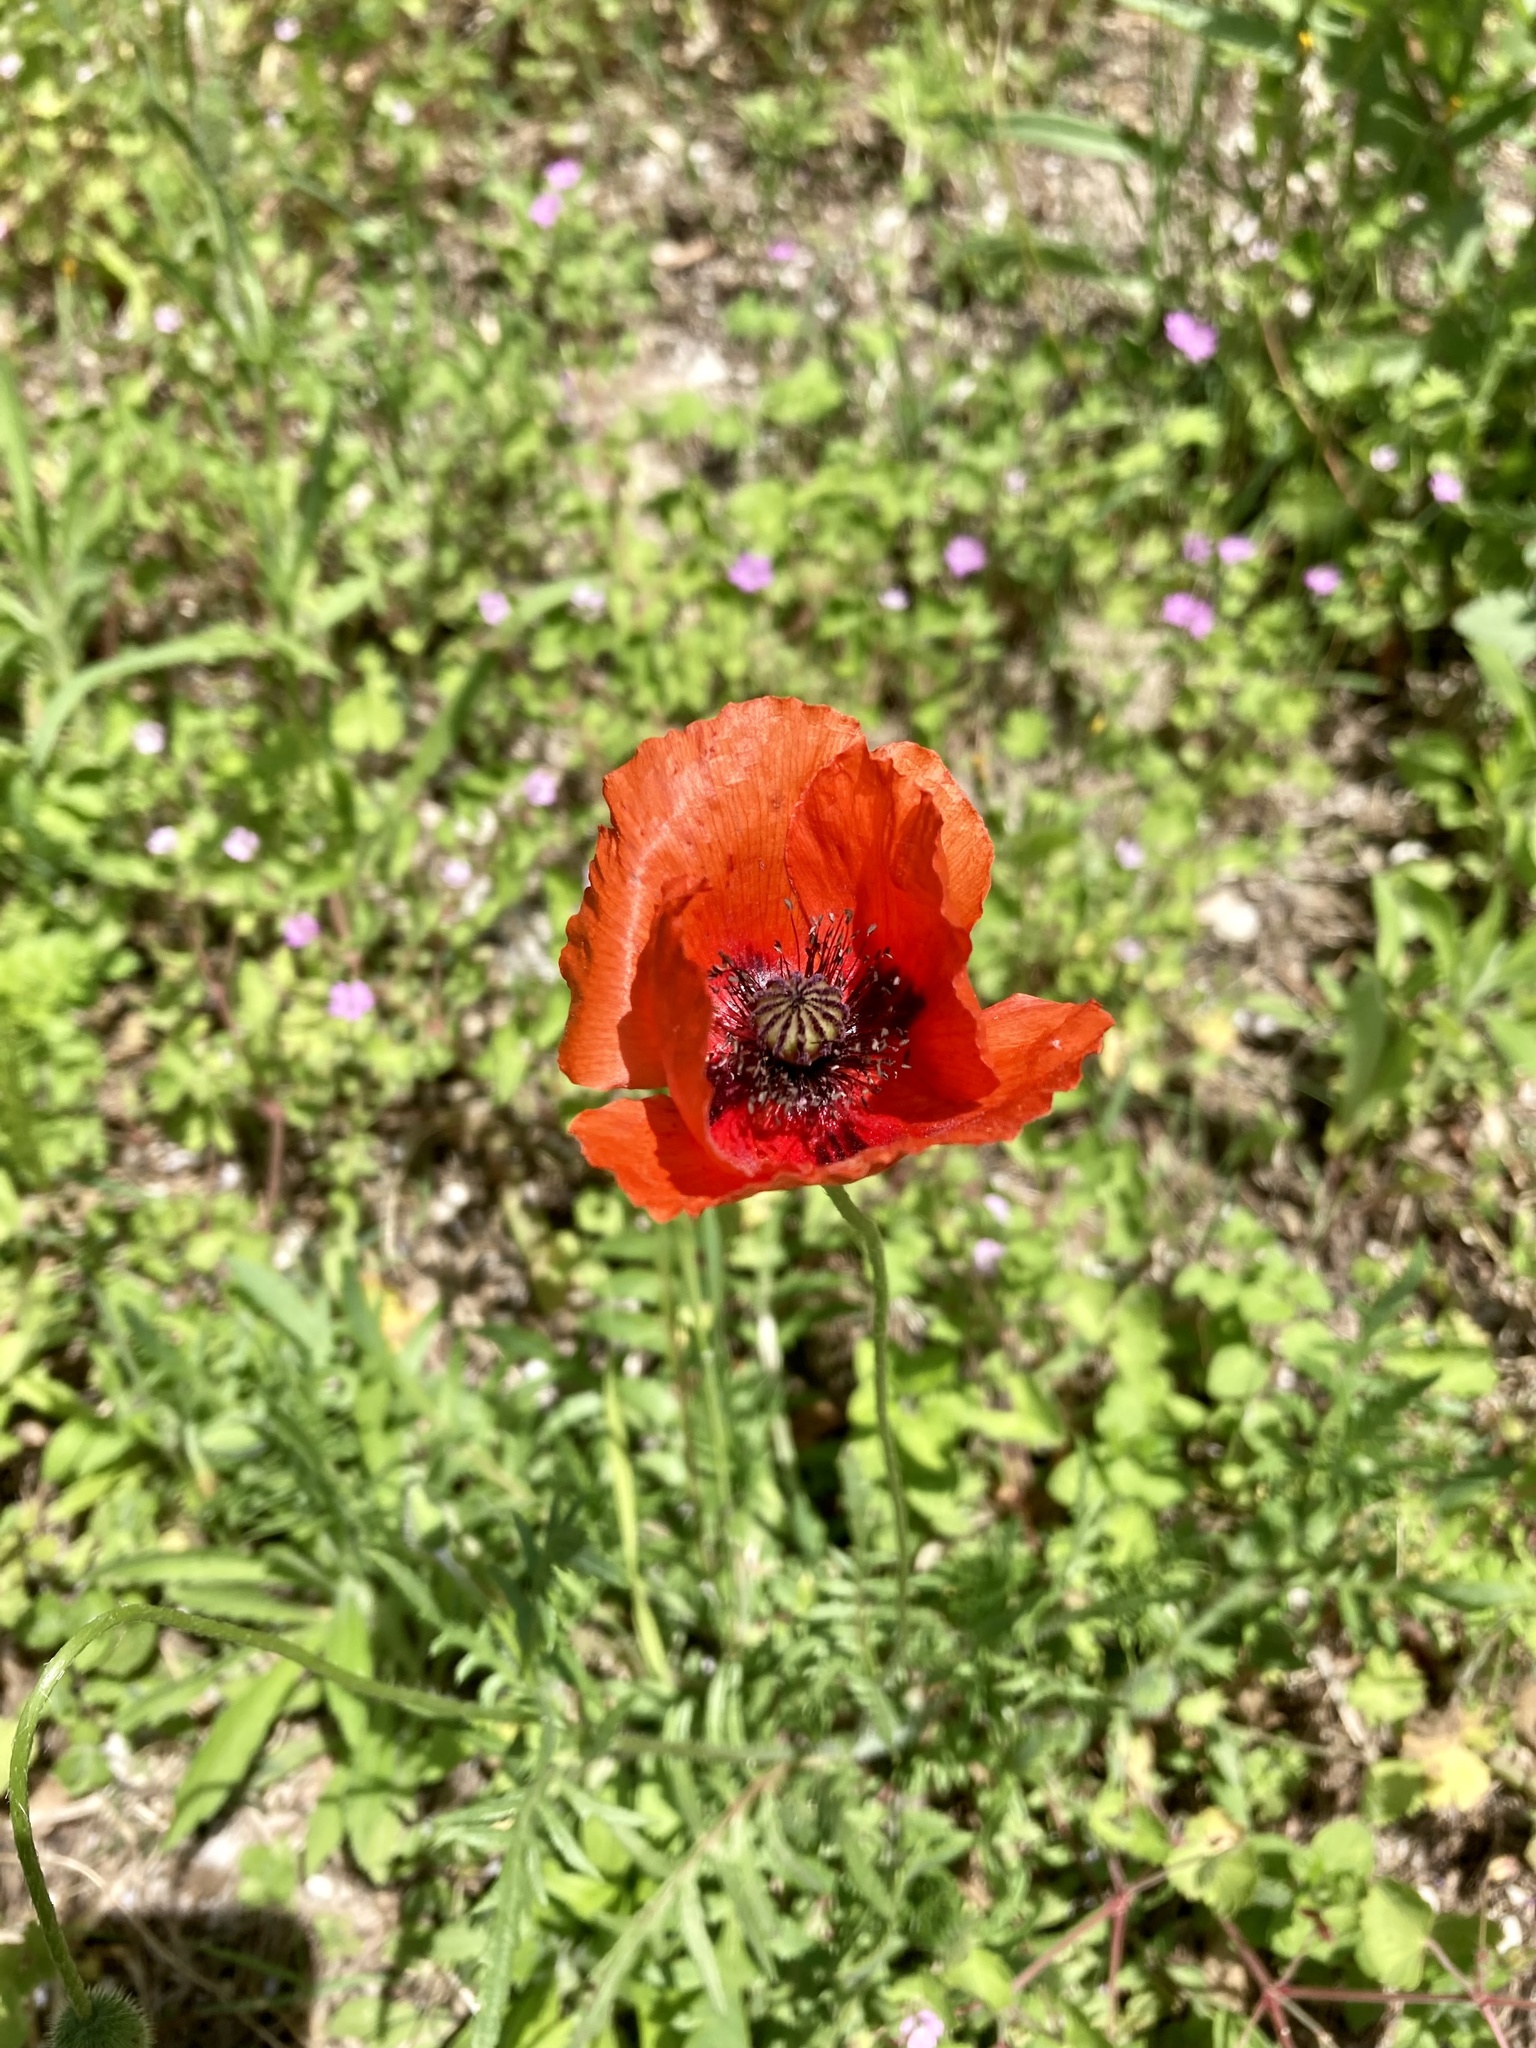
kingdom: Plantae
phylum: Tracheophyta
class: Magnoliopsida
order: Ranunculales
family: Papaveraceae
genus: Papaver
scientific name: Papaver rhoeas
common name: Corn poppy
